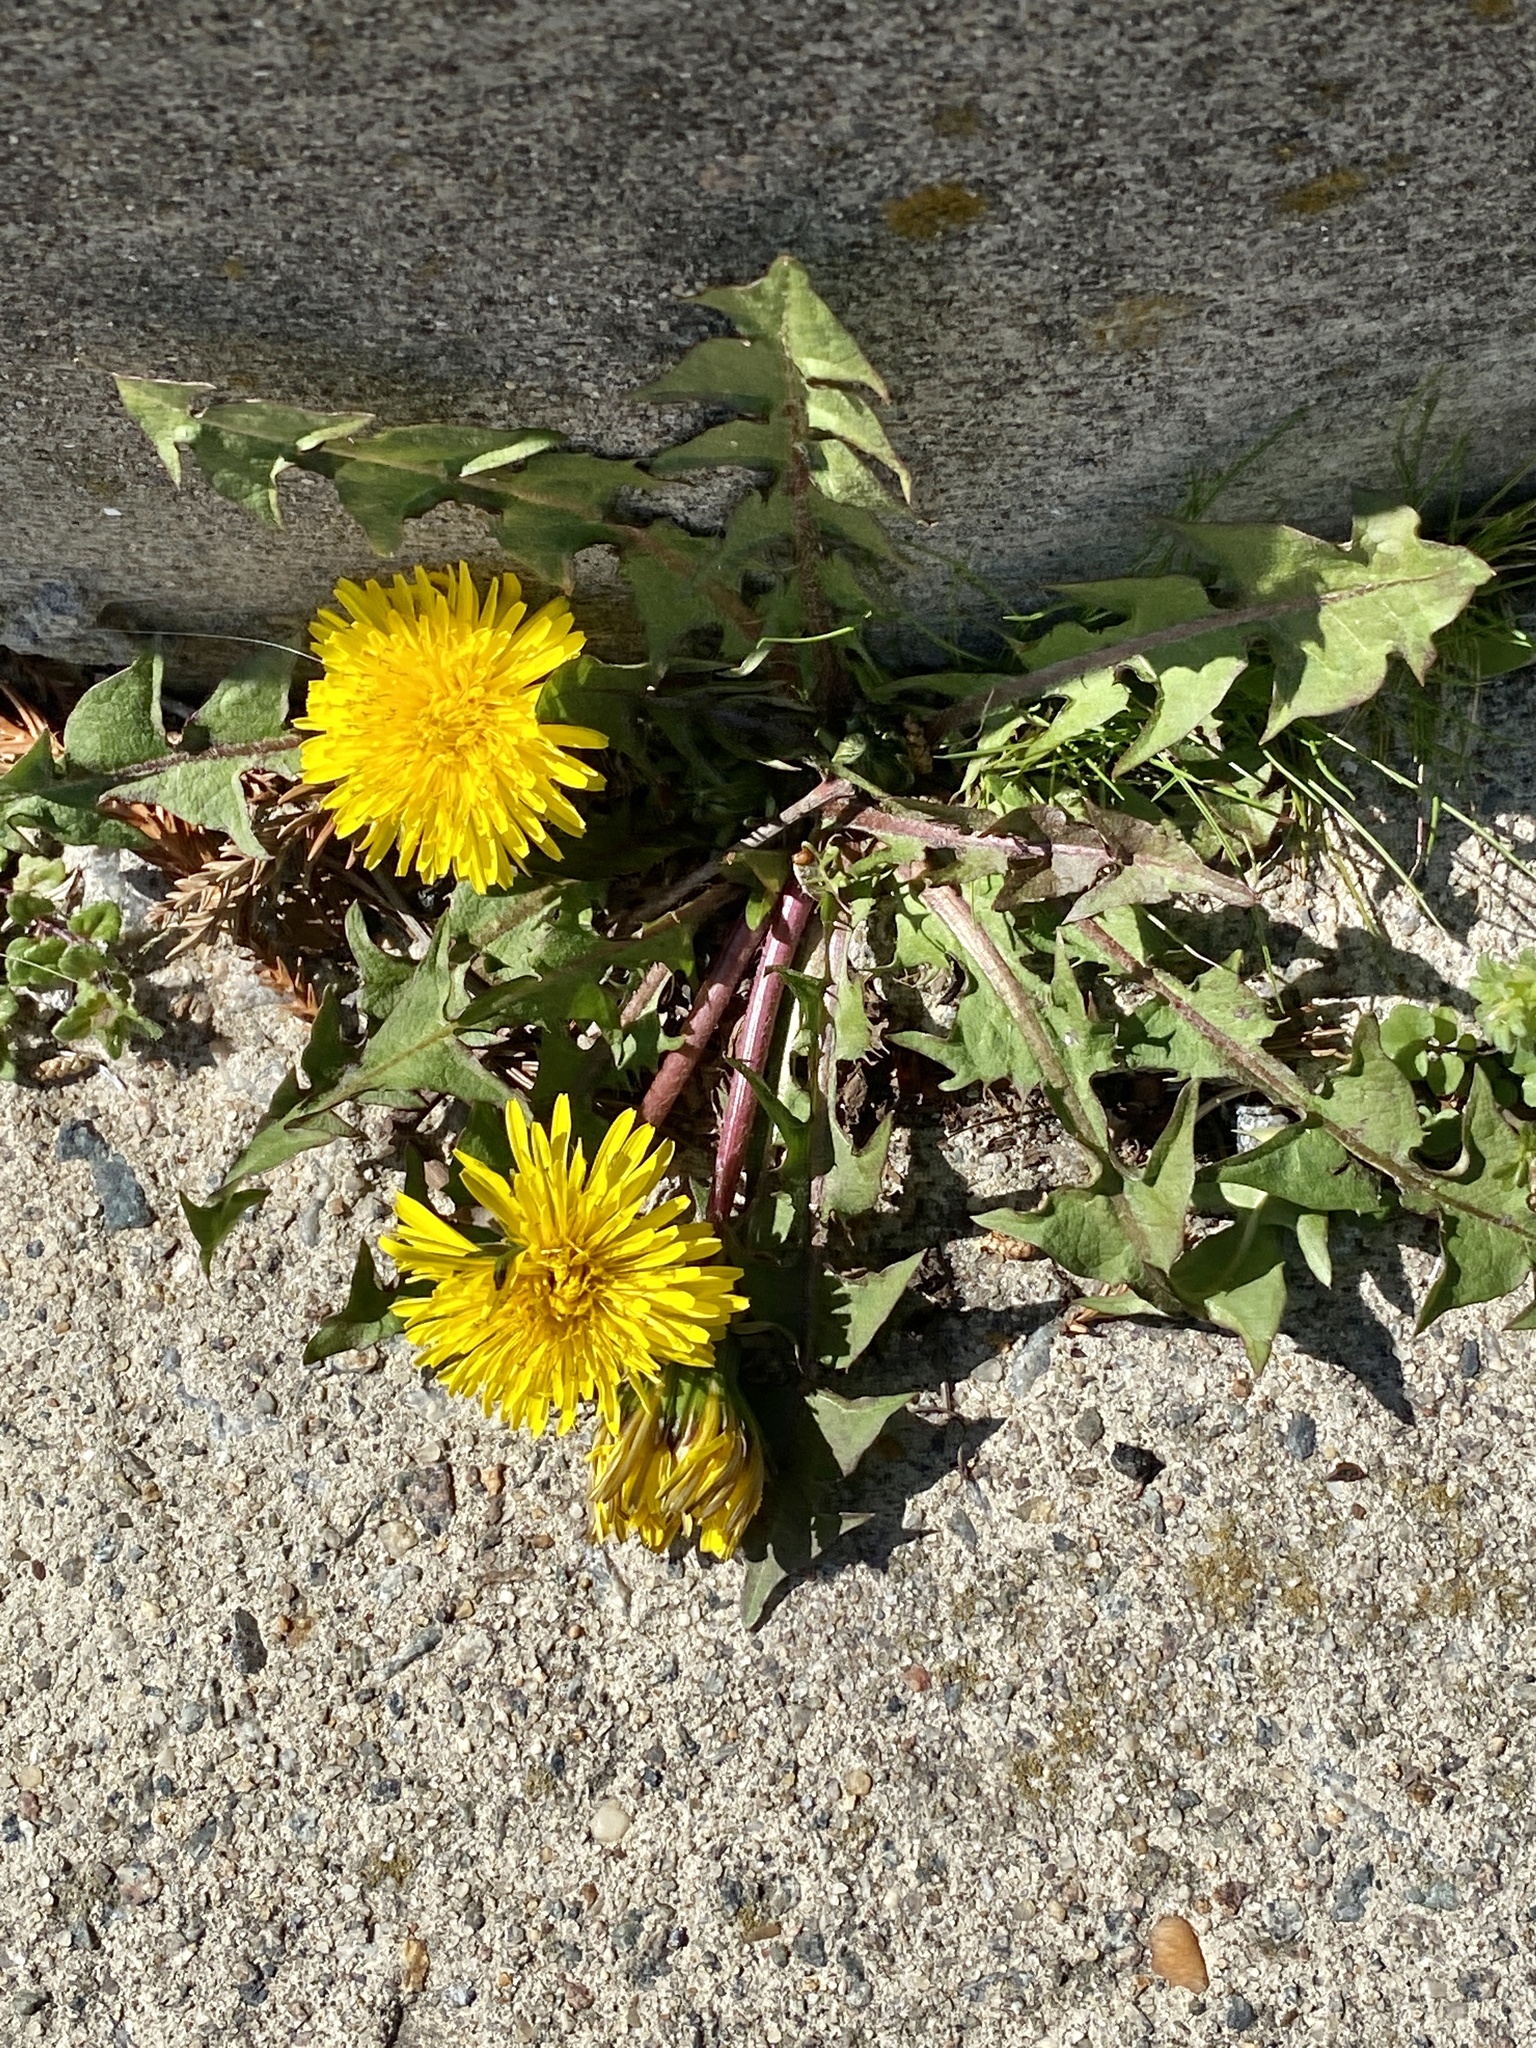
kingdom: Plantae
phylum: Tracheophyta
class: Magnoliopsida
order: Asterales
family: Asteraceae
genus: Taraxacum
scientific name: Taraxacum
